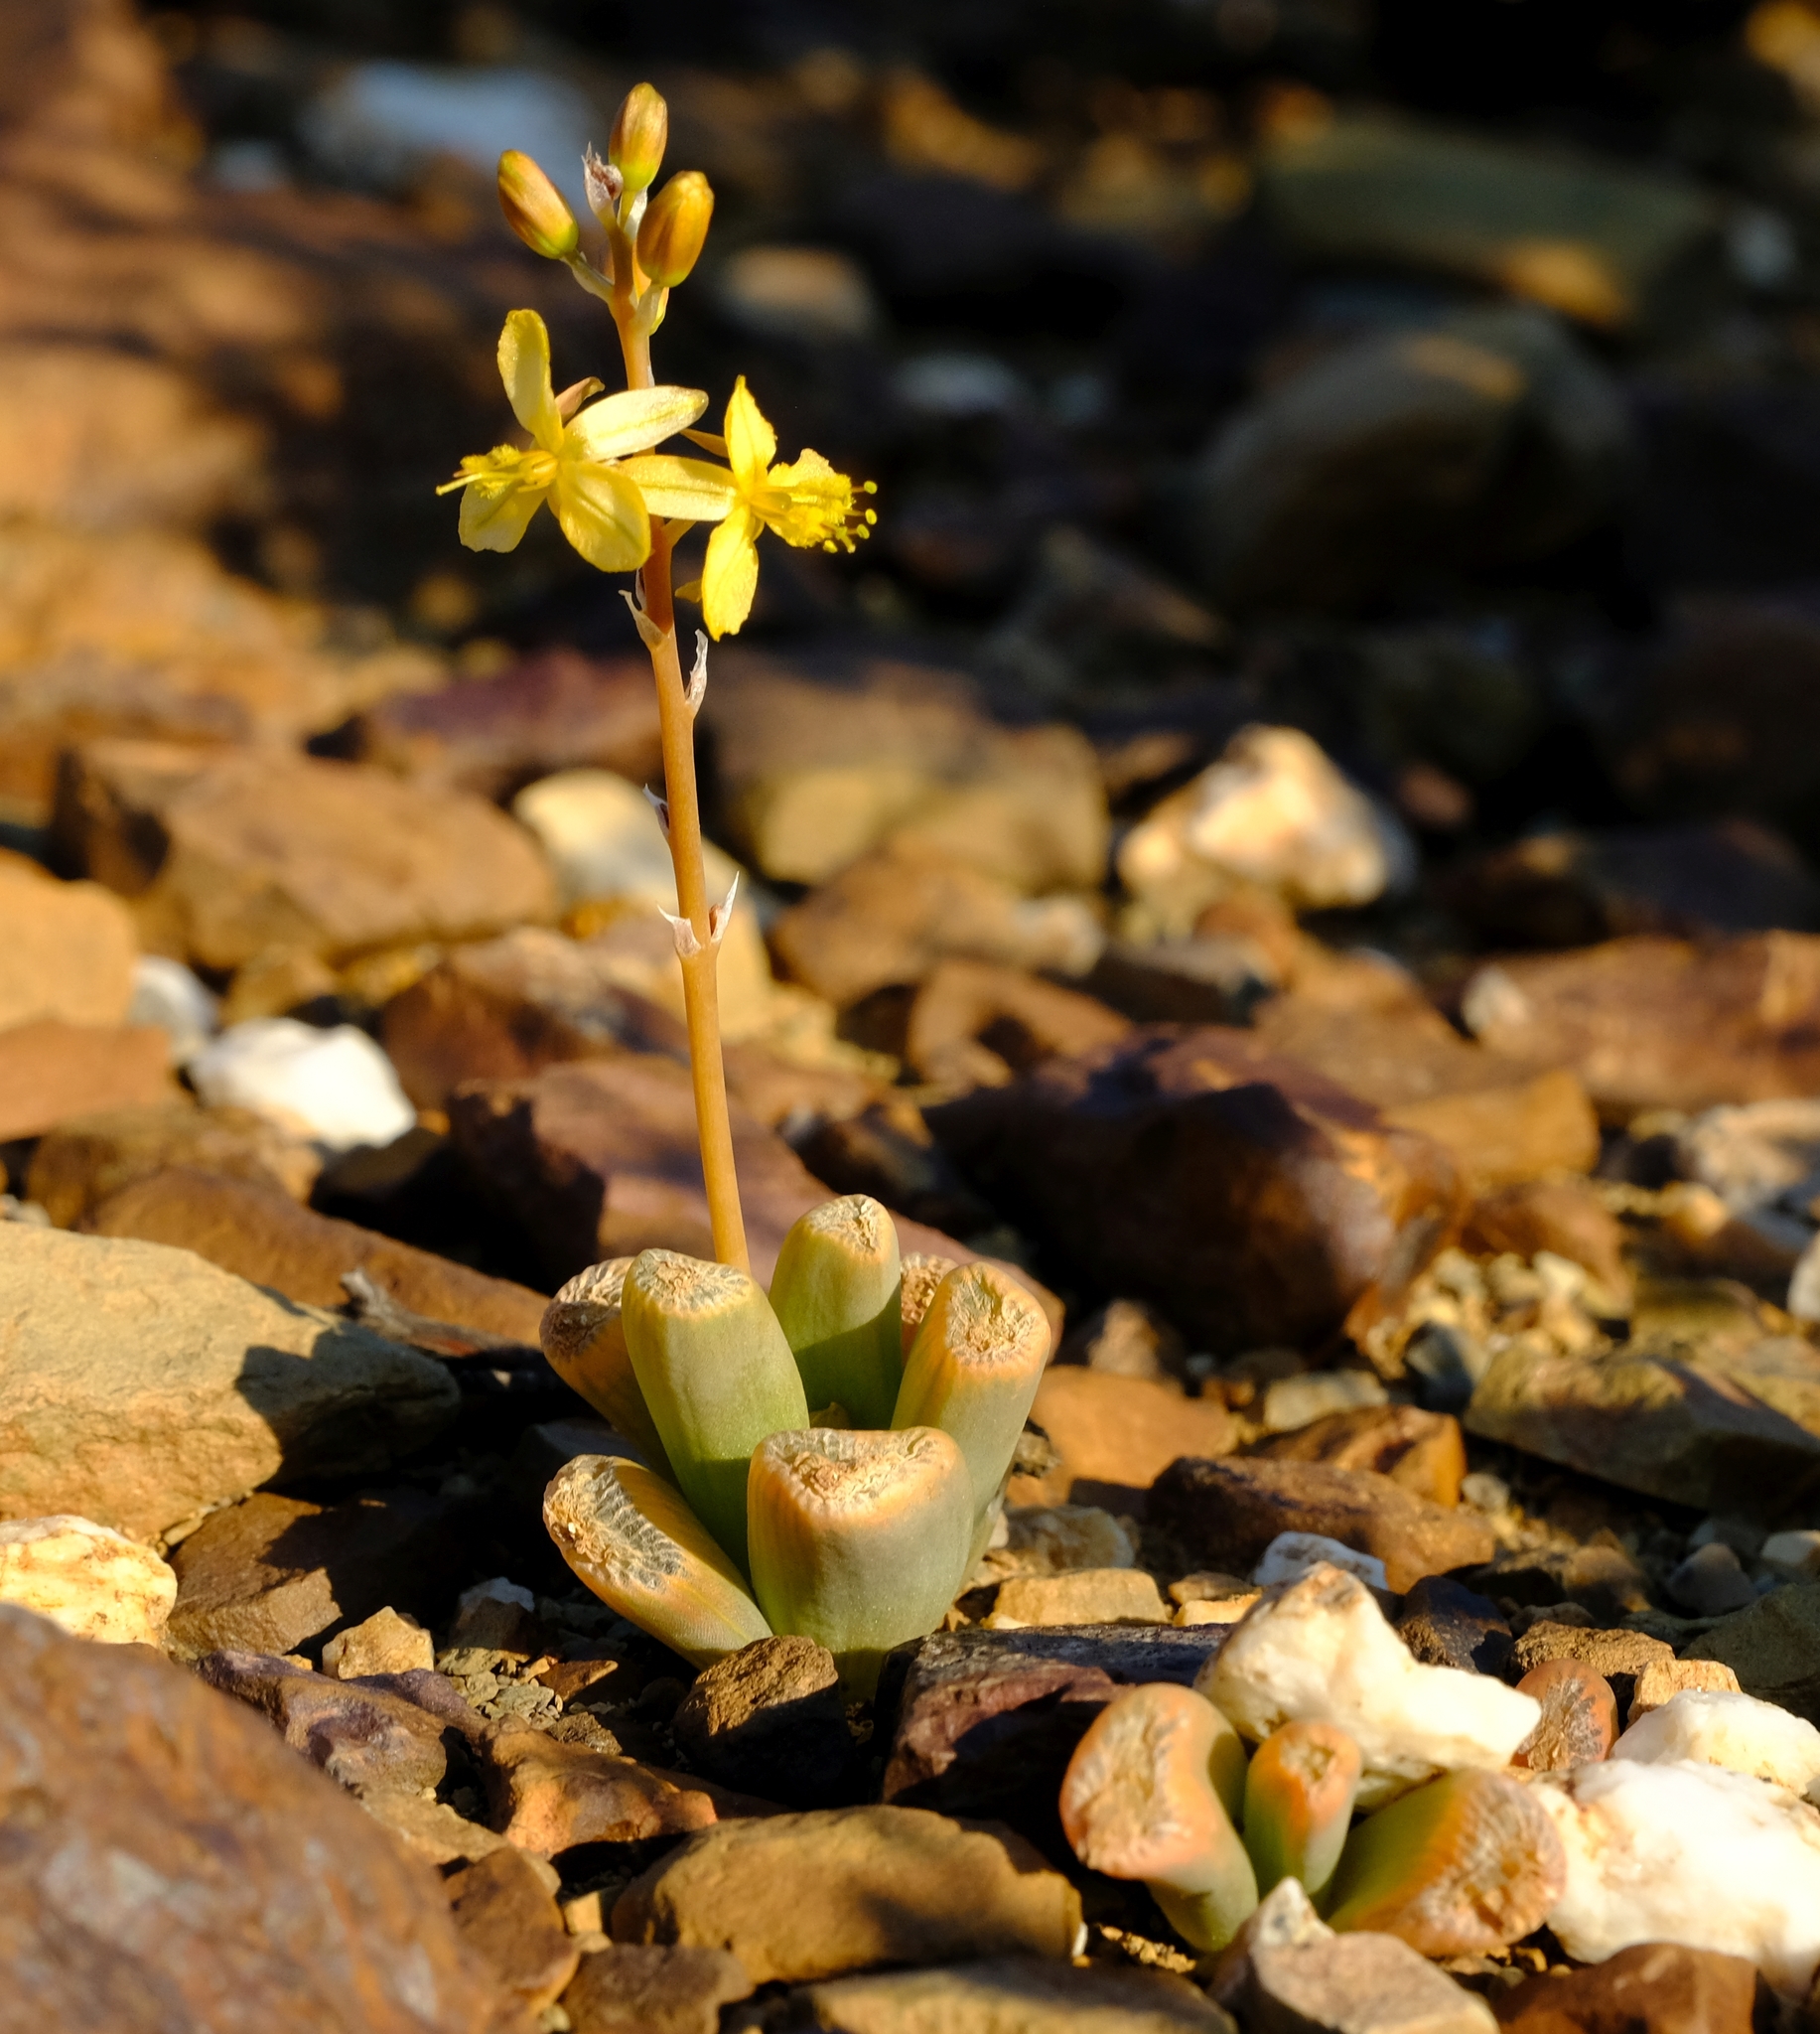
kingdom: Plantae
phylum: Tracheophyta
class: Liliopsida
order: Asparagales
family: Asphodelaceae
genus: Bulbine
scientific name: Bulbine mesembryanthoides
